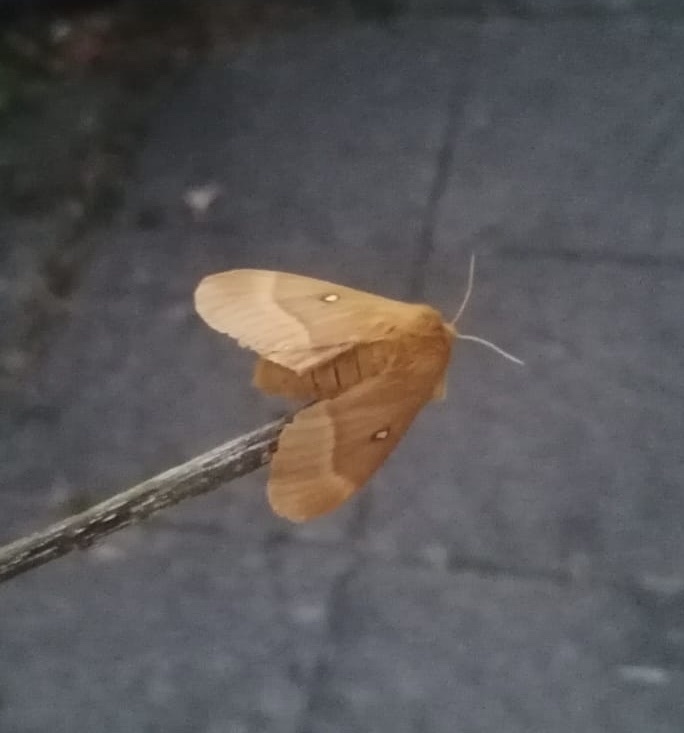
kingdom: Animalia
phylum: Arthropoda
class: Insecta
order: Lepidoptera
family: Lasiocampidae
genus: Lasiocampa
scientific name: Lasiocampa quercus
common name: Oak eggar
